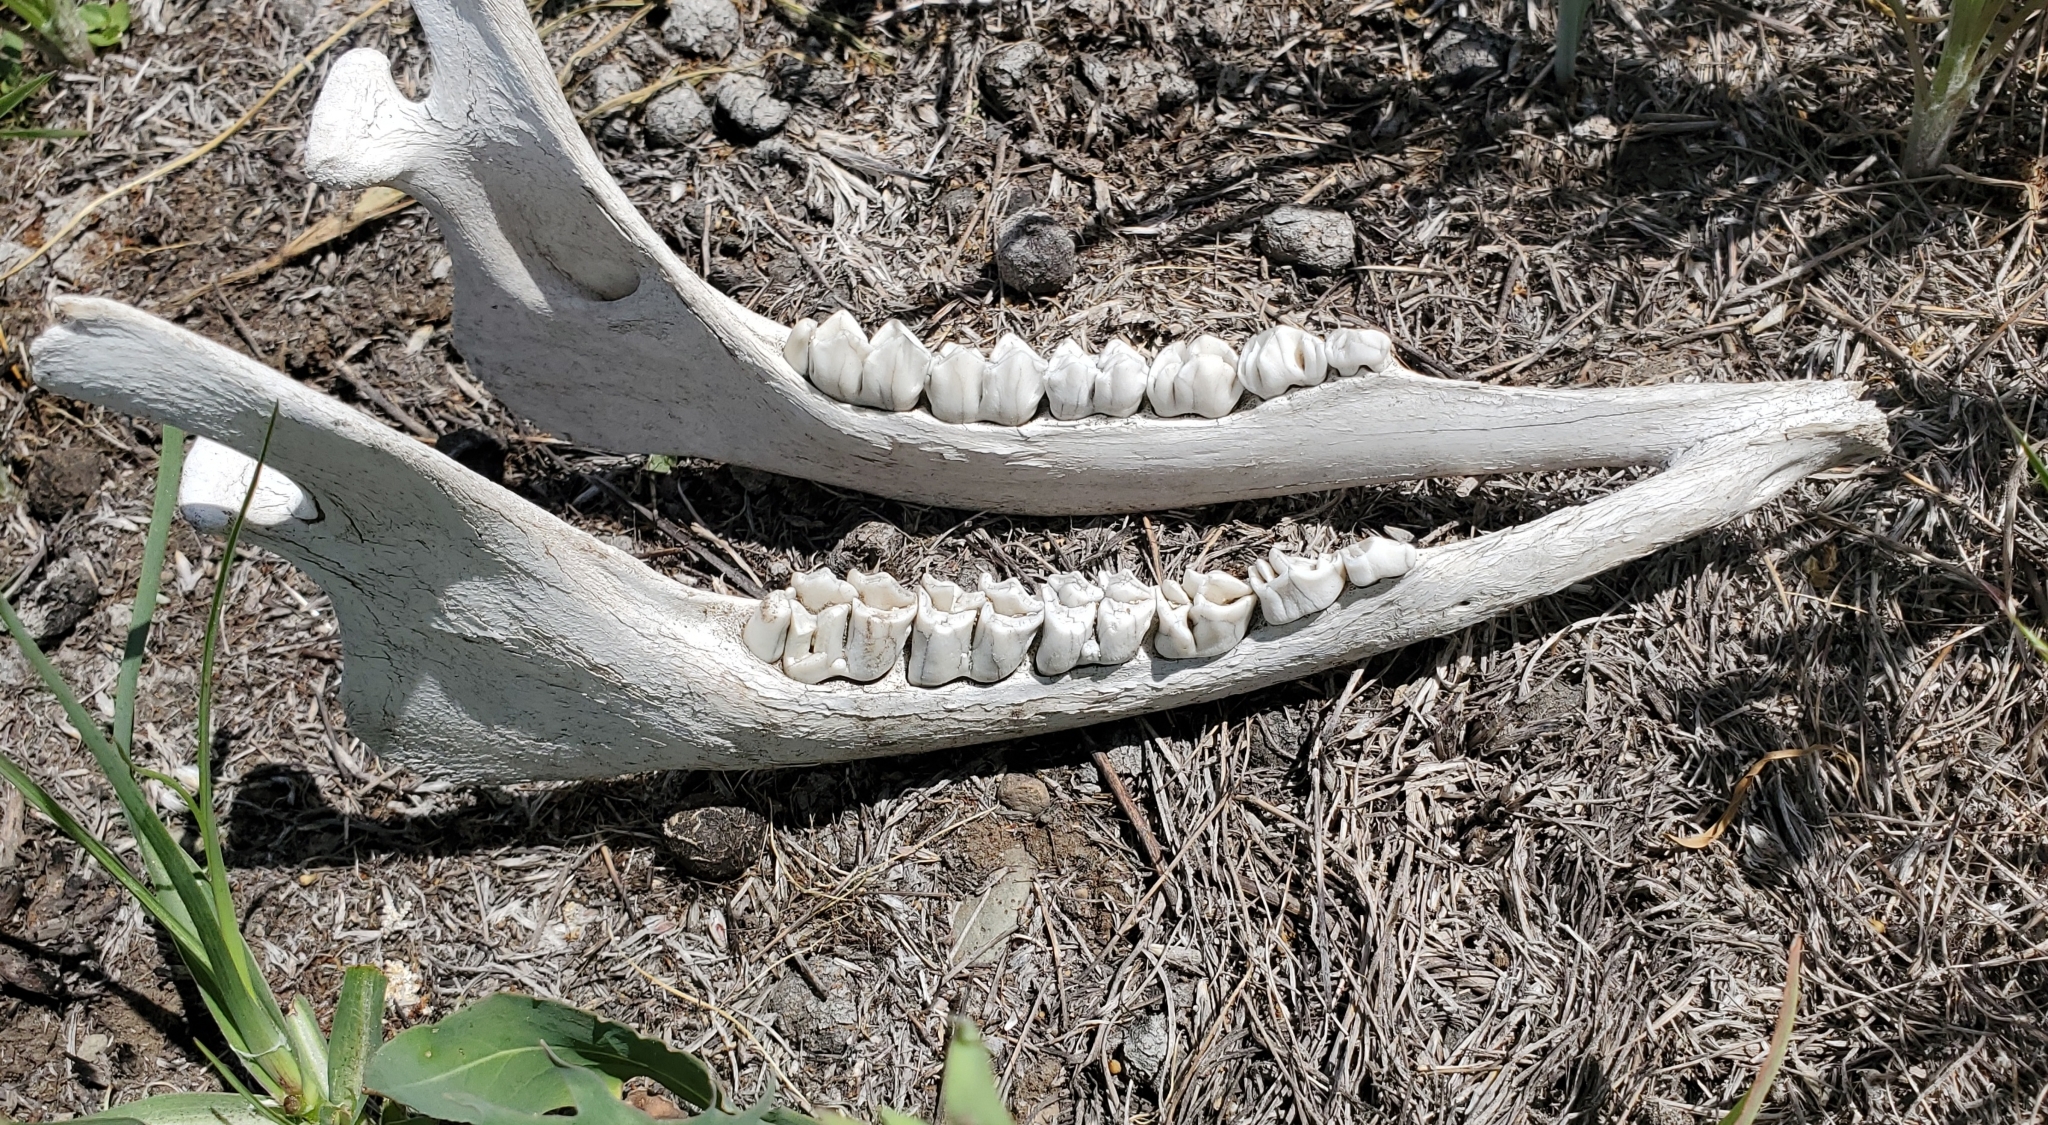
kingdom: Animalia
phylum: Chordata
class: Mammalia
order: Artiodactyla
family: Cervidae
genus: Cervus
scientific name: Cervus elaphus
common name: Red deer
